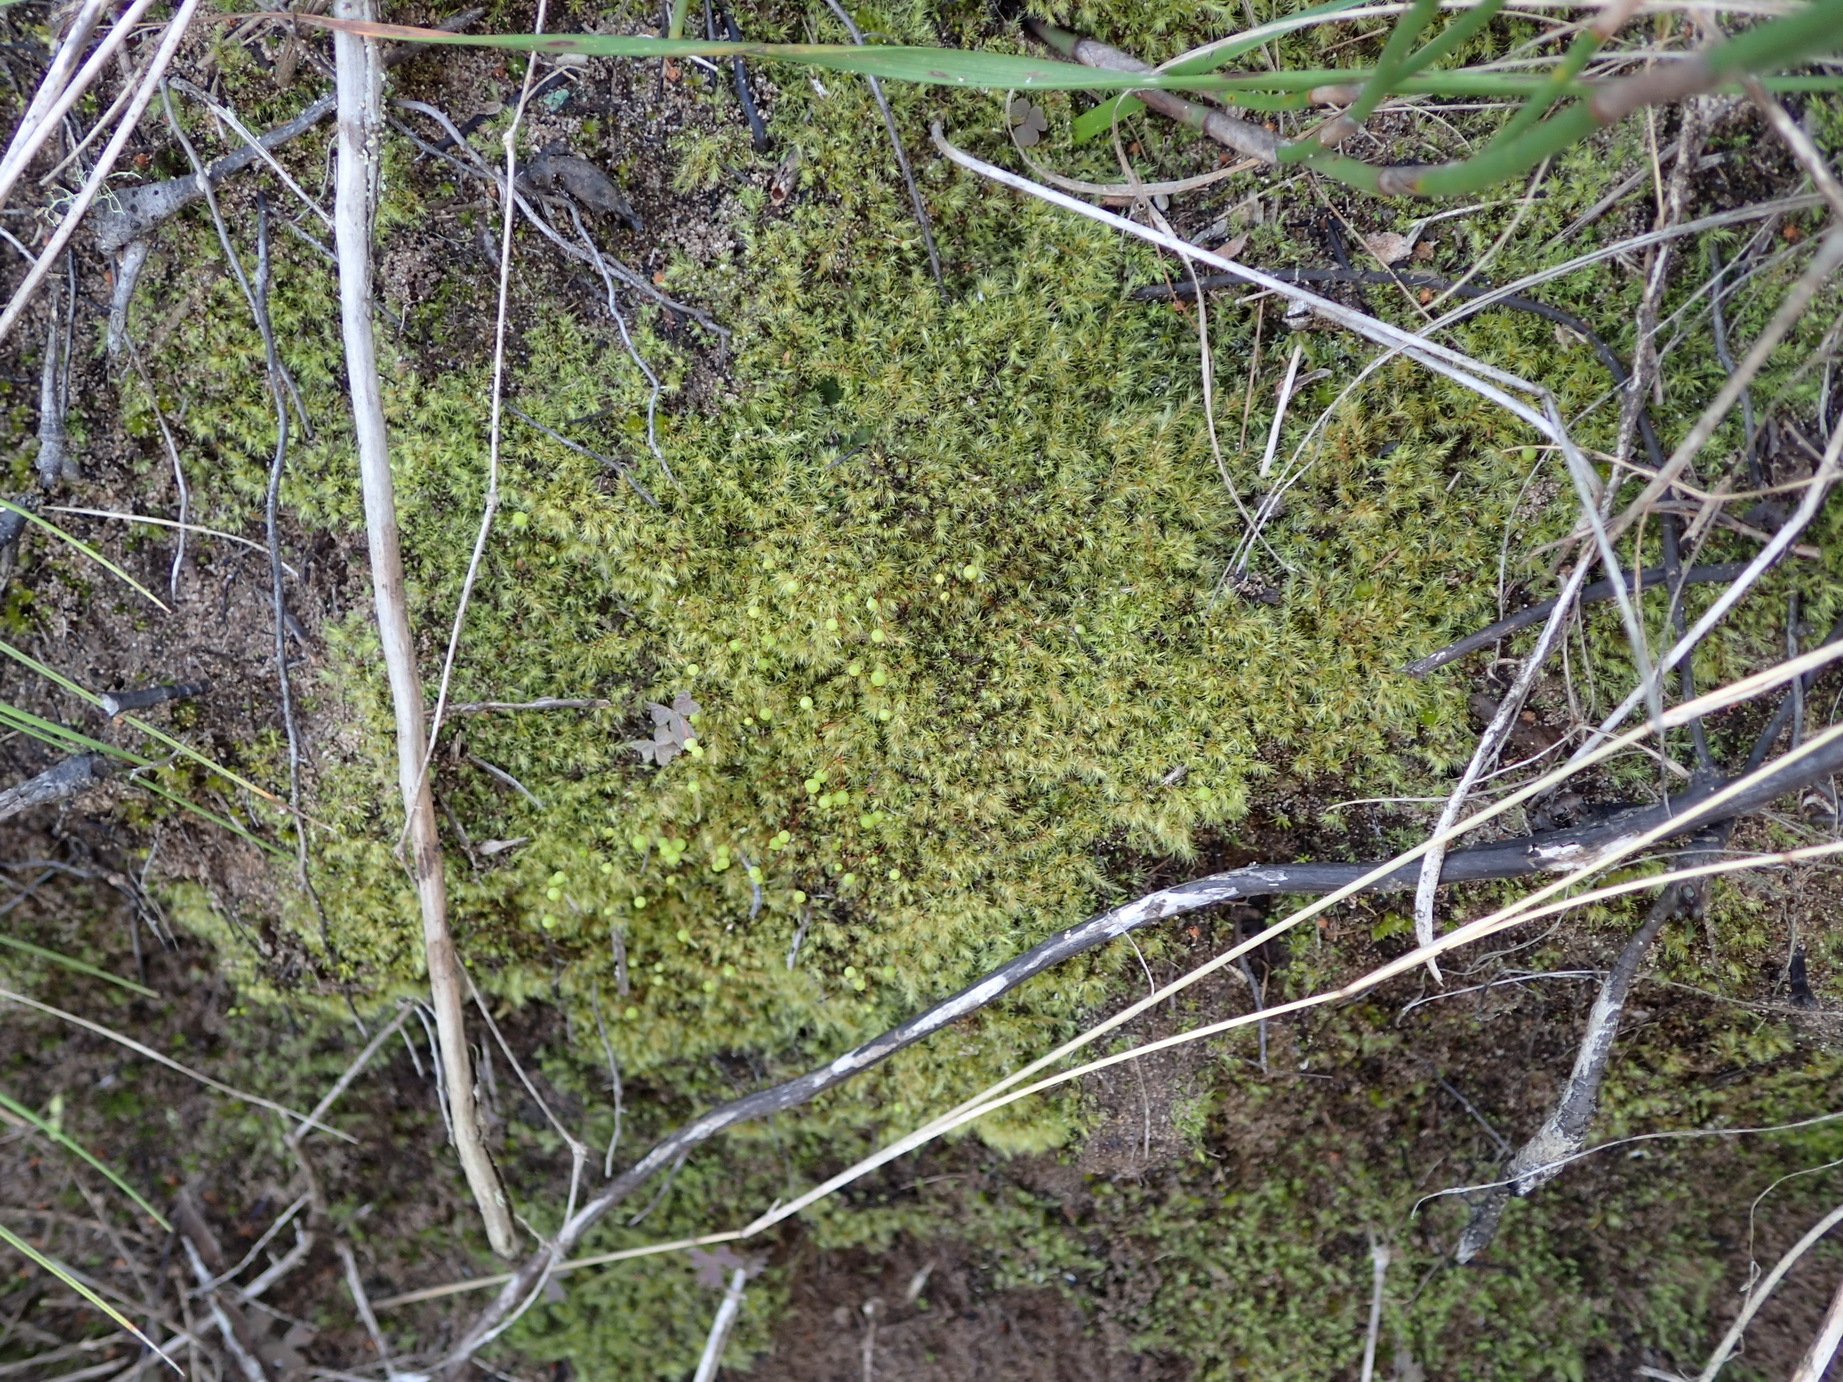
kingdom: Plantae
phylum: Bryophyta
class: Bryopsida
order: Bartramiales
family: Bartramiaceae
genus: Bartramia
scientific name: Bartramia hampeana
